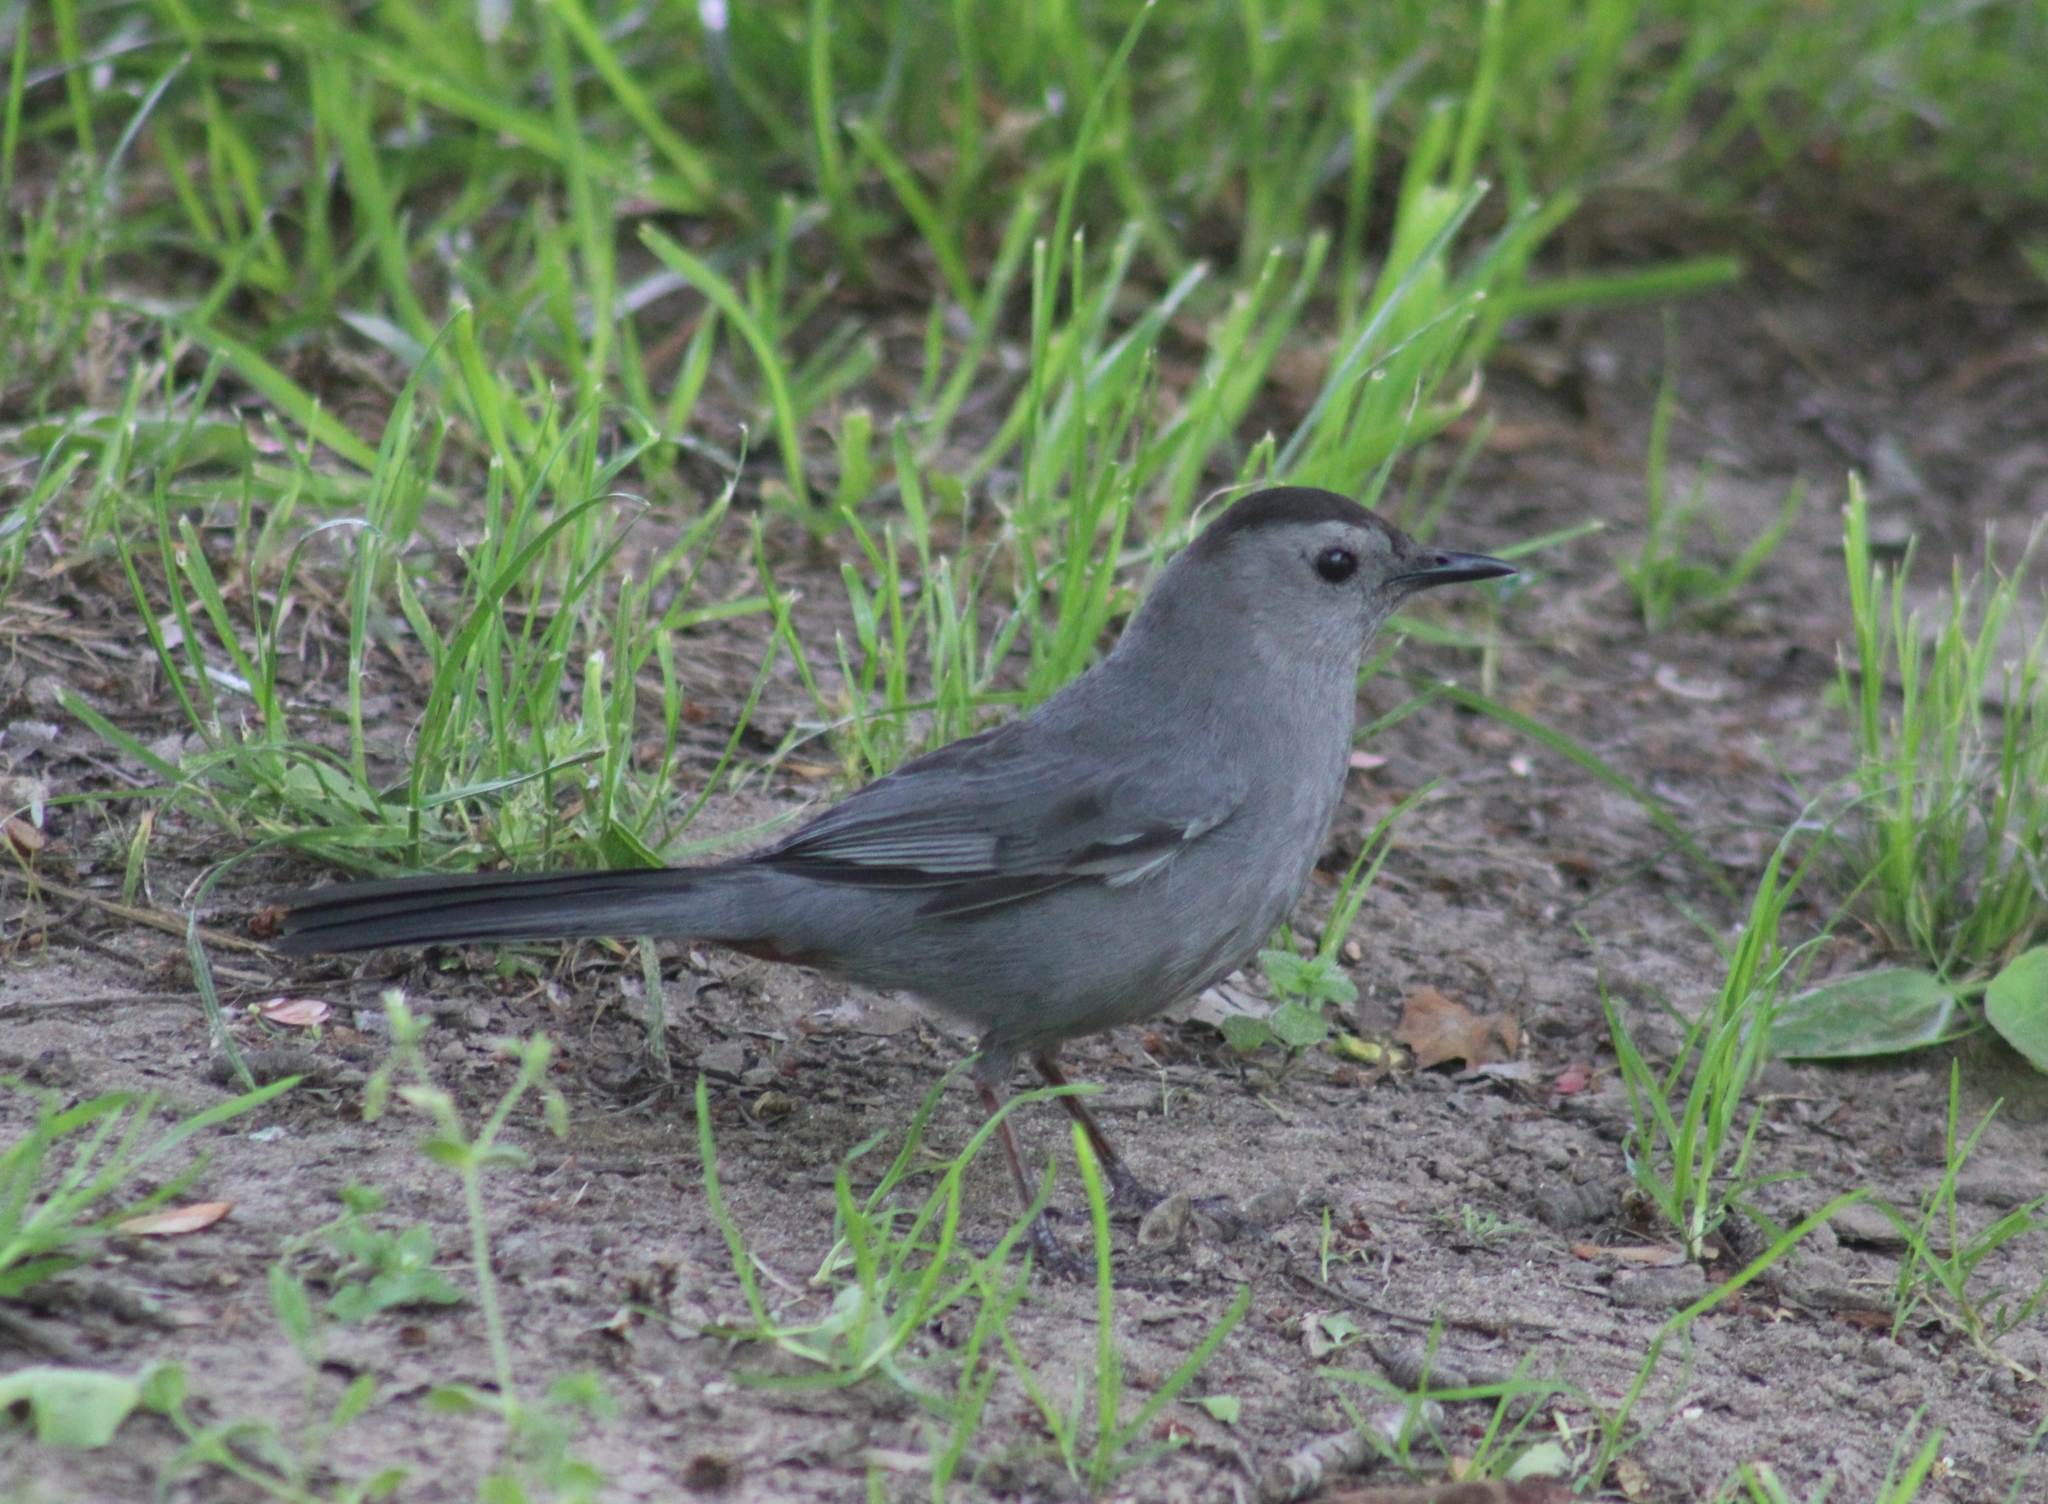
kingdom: Animalia
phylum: Chordata
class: Aves
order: Passeriformes
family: Mimidae
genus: Dumetella
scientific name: Dumetella carolinensis
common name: Gray catbird
